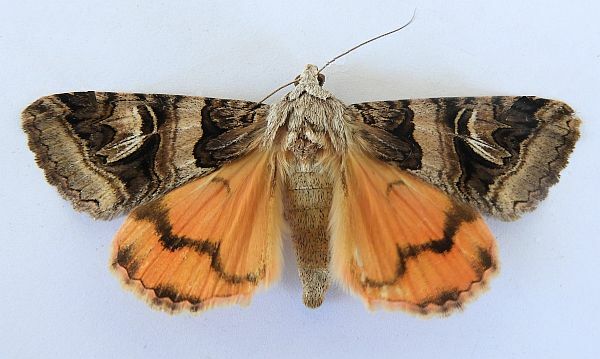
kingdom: Animalia
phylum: Arthropoda
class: Insecta
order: Lepidoptera
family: Erebidae
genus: Drasteria
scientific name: Drasteria walshi
